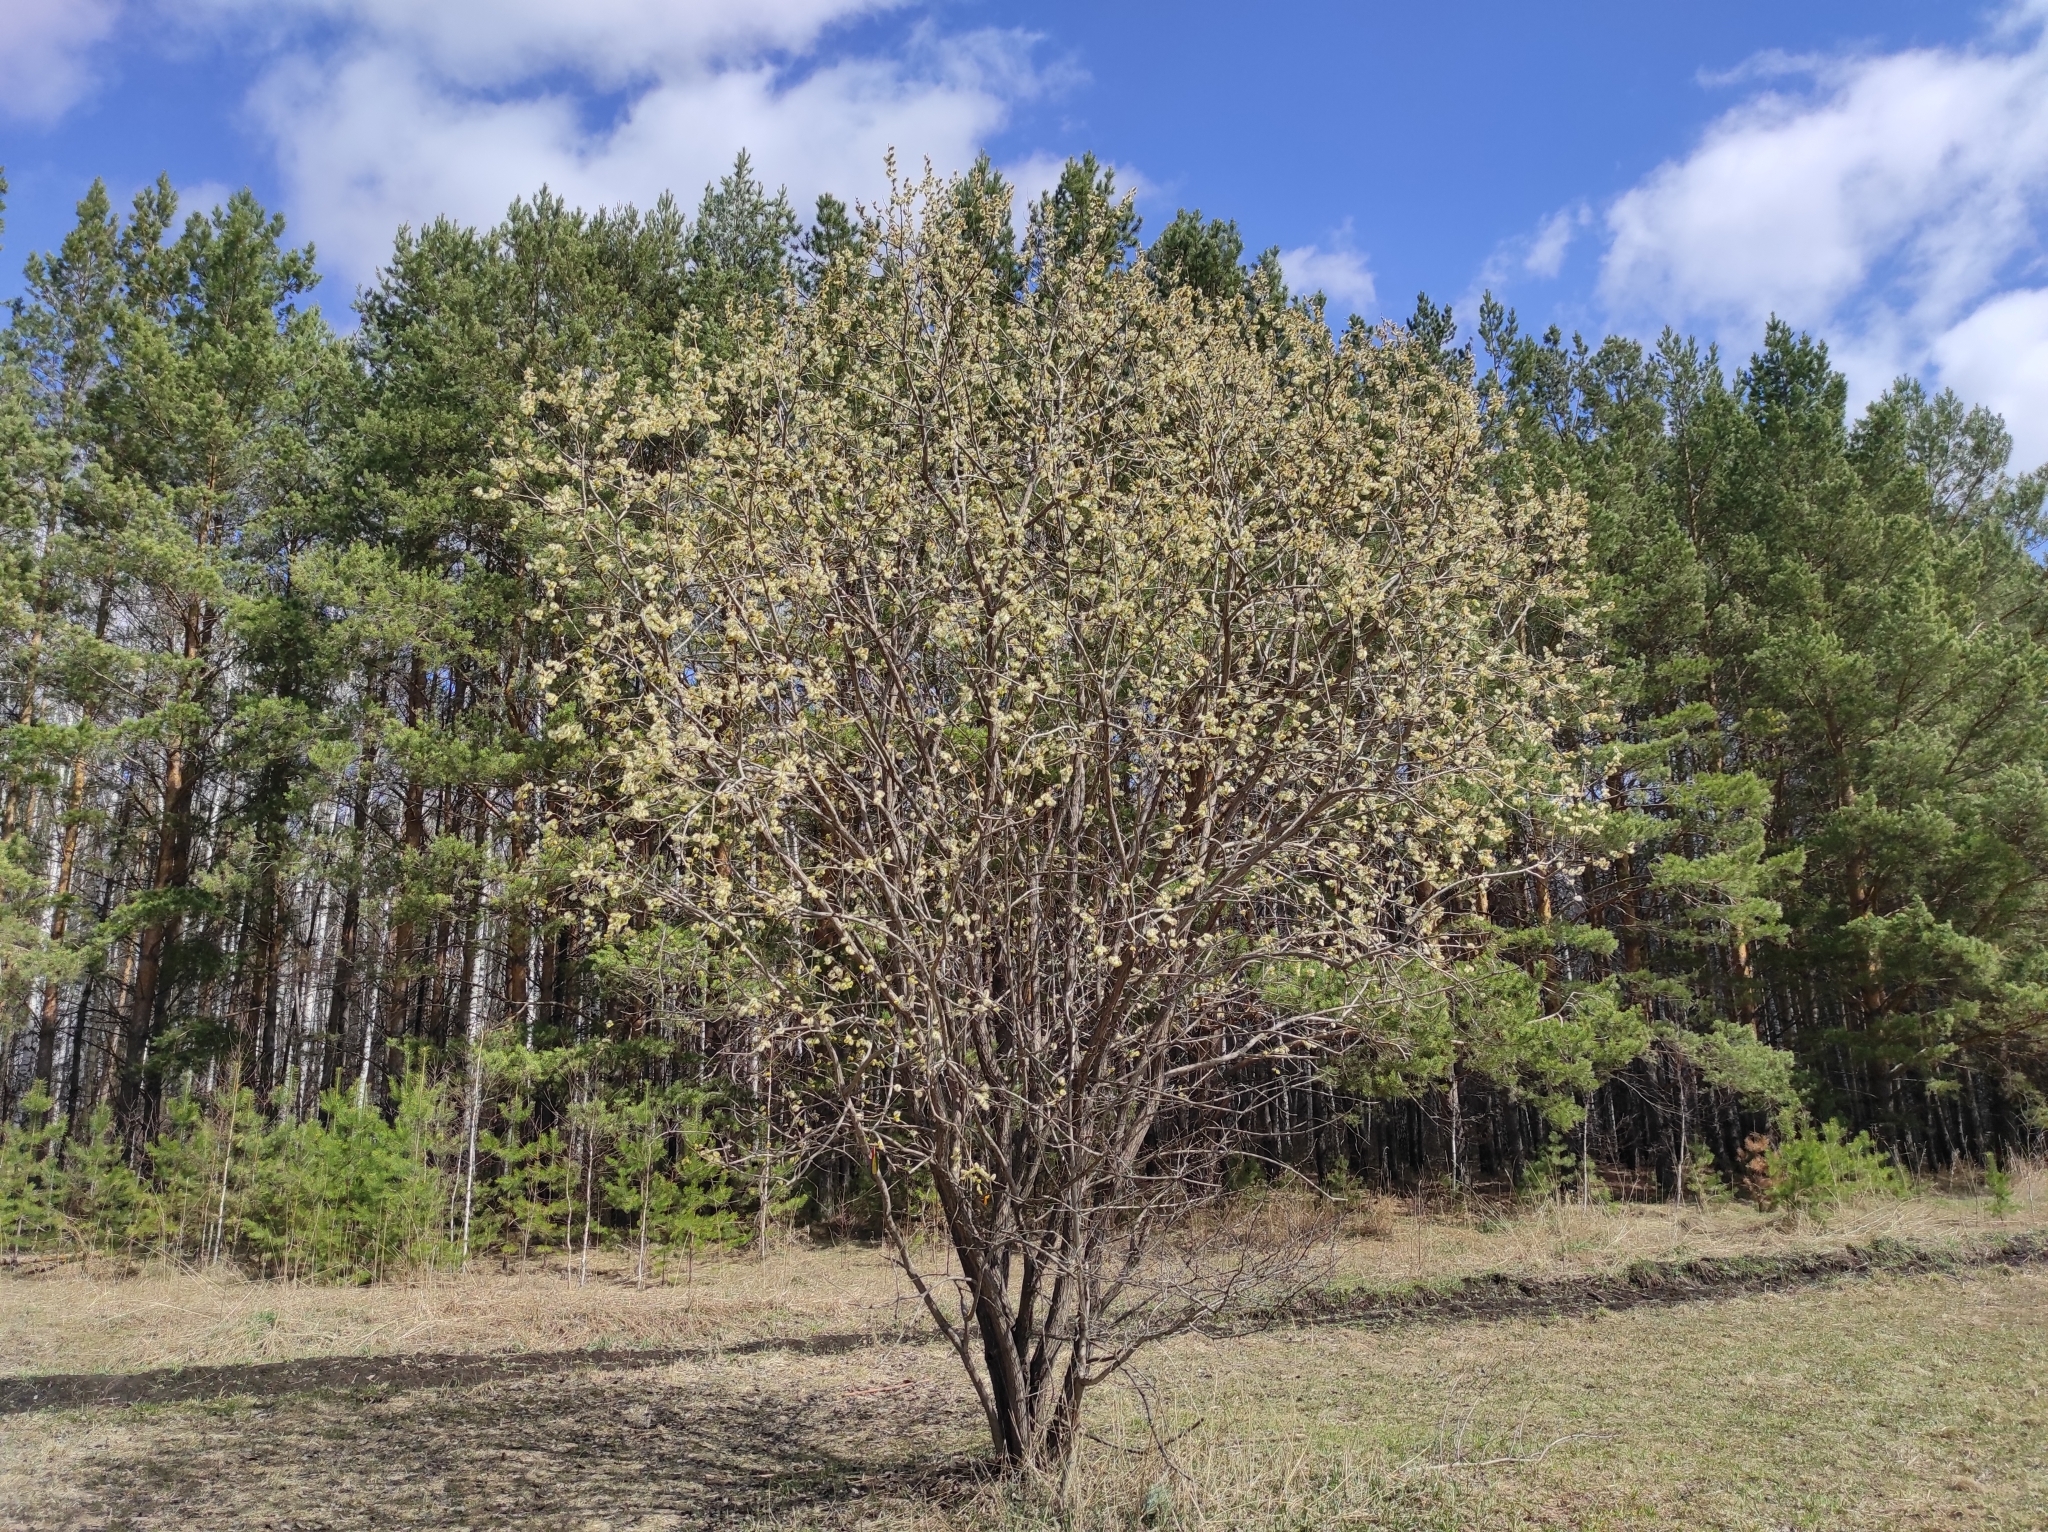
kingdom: Plantae
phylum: Tracheophyta
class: Magnoliopsida
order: Malpighiales
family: Salicaceae
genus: Salix
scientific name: Salix caprea
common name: Goat willow
